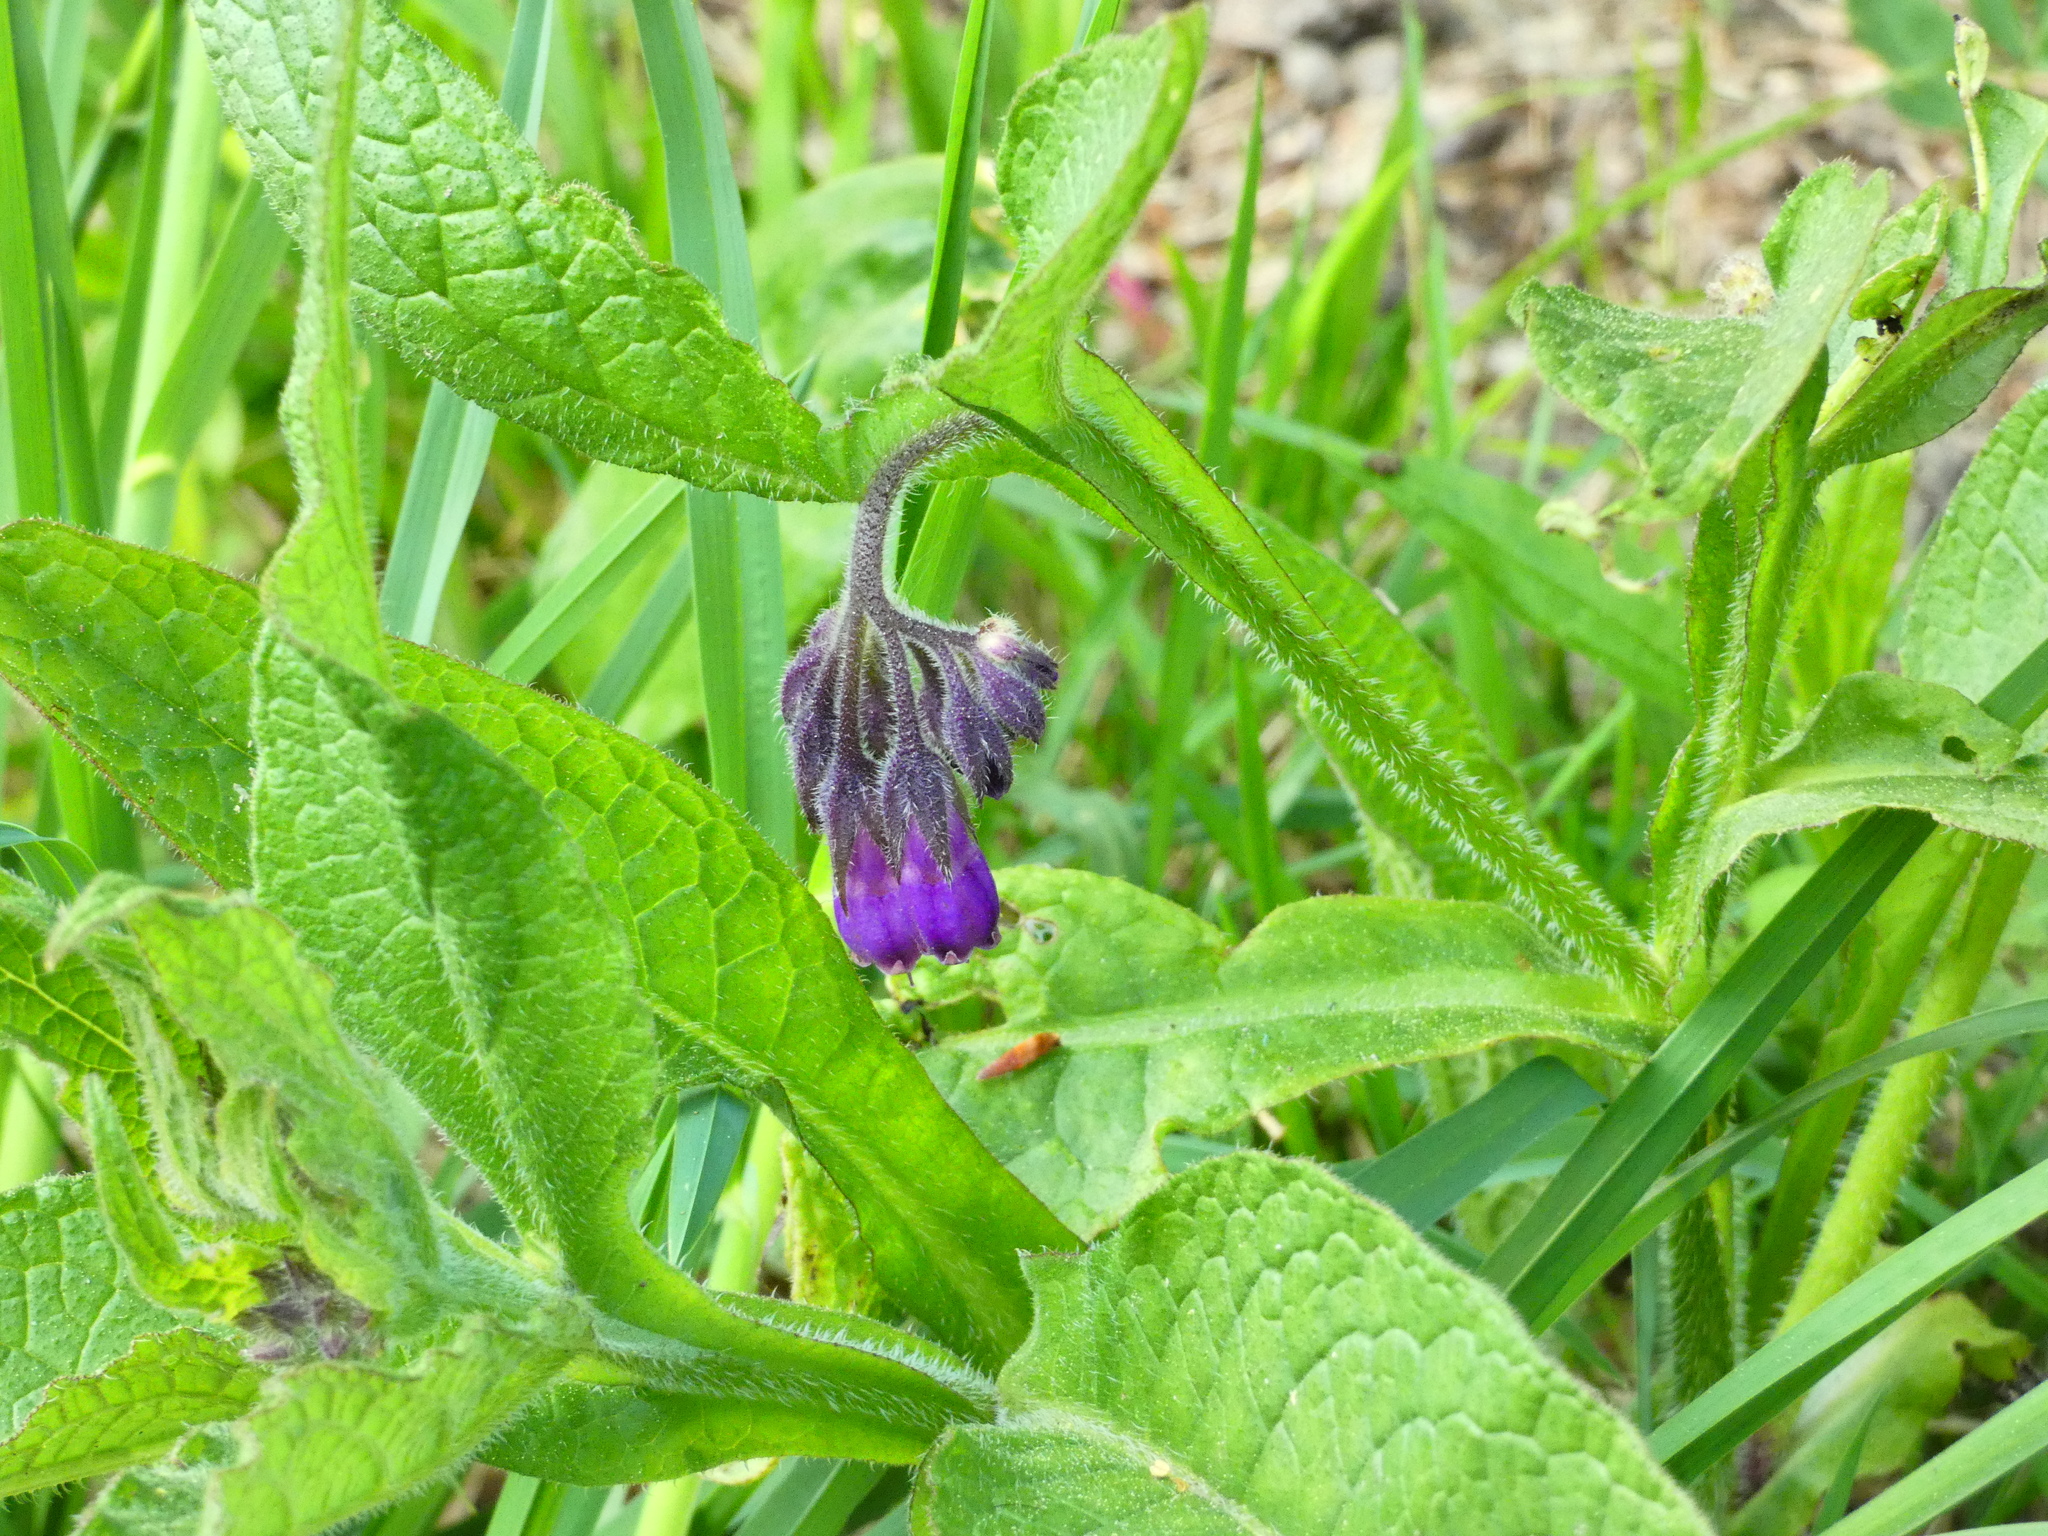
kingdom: Plantae
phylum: Tracheophyta
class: Magnoliopsida
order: Boraginales
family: Boraginaceae
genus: Symphytum
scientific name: Symphytum officinale
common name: Common comfrey
